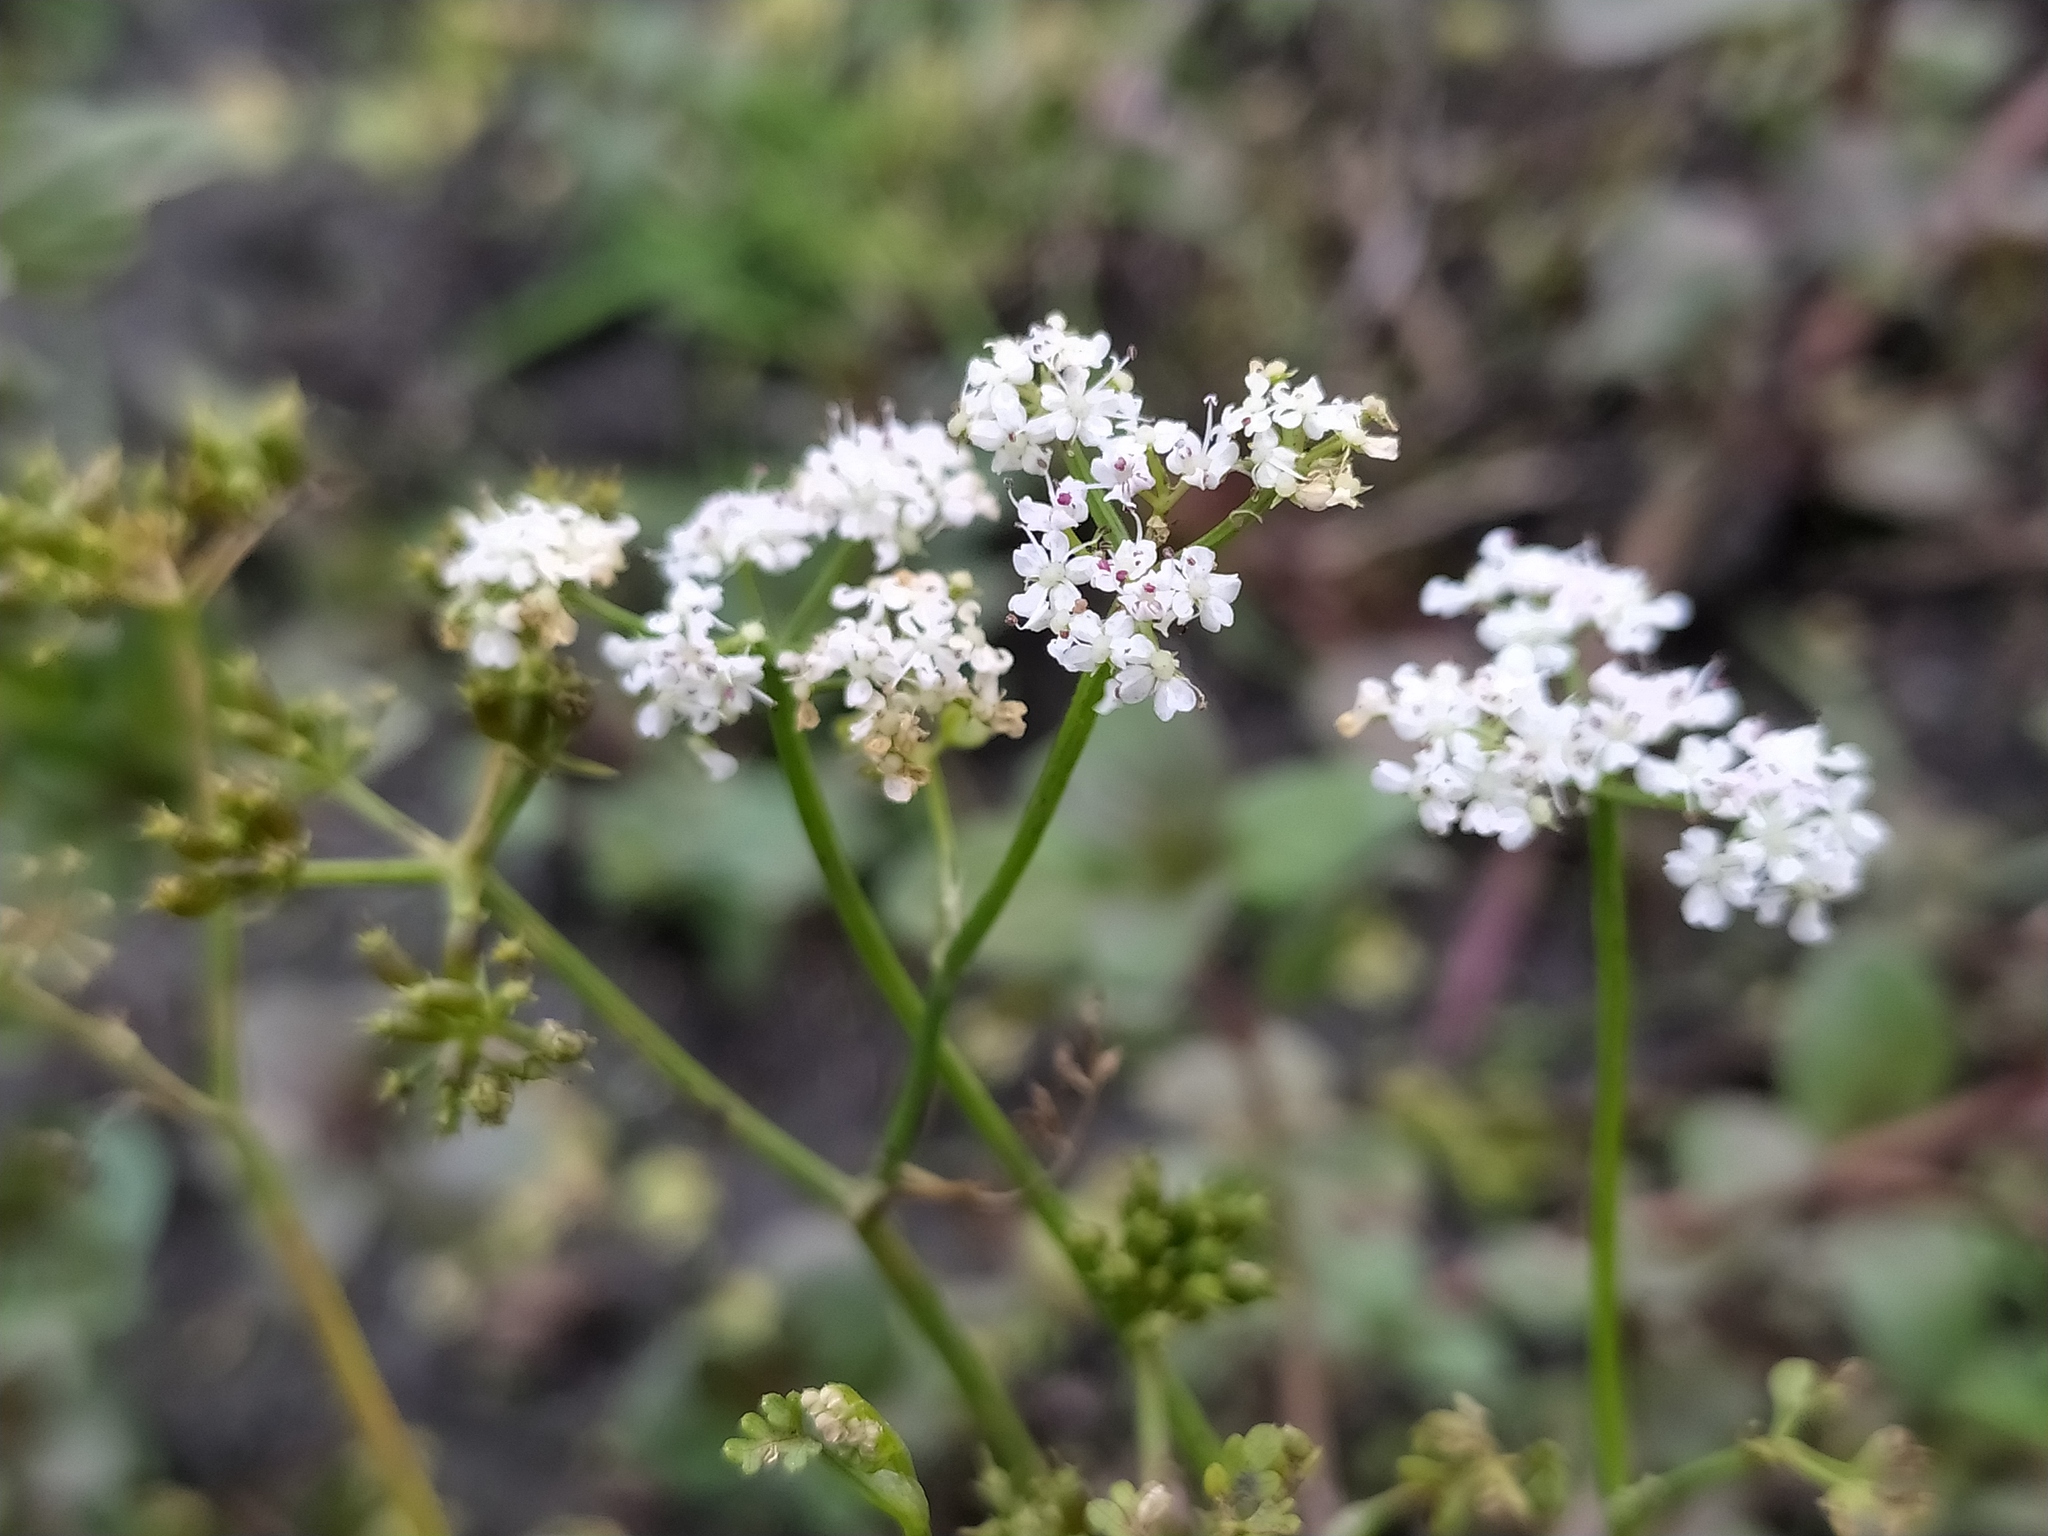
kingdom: Plantae
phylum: Tracheophyta
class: Magnoliopsida
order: Apiales
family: Apiaceae
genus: Oenanthe
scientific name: Oenanthe aquatica
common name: Fine-leaved water-dropwort
